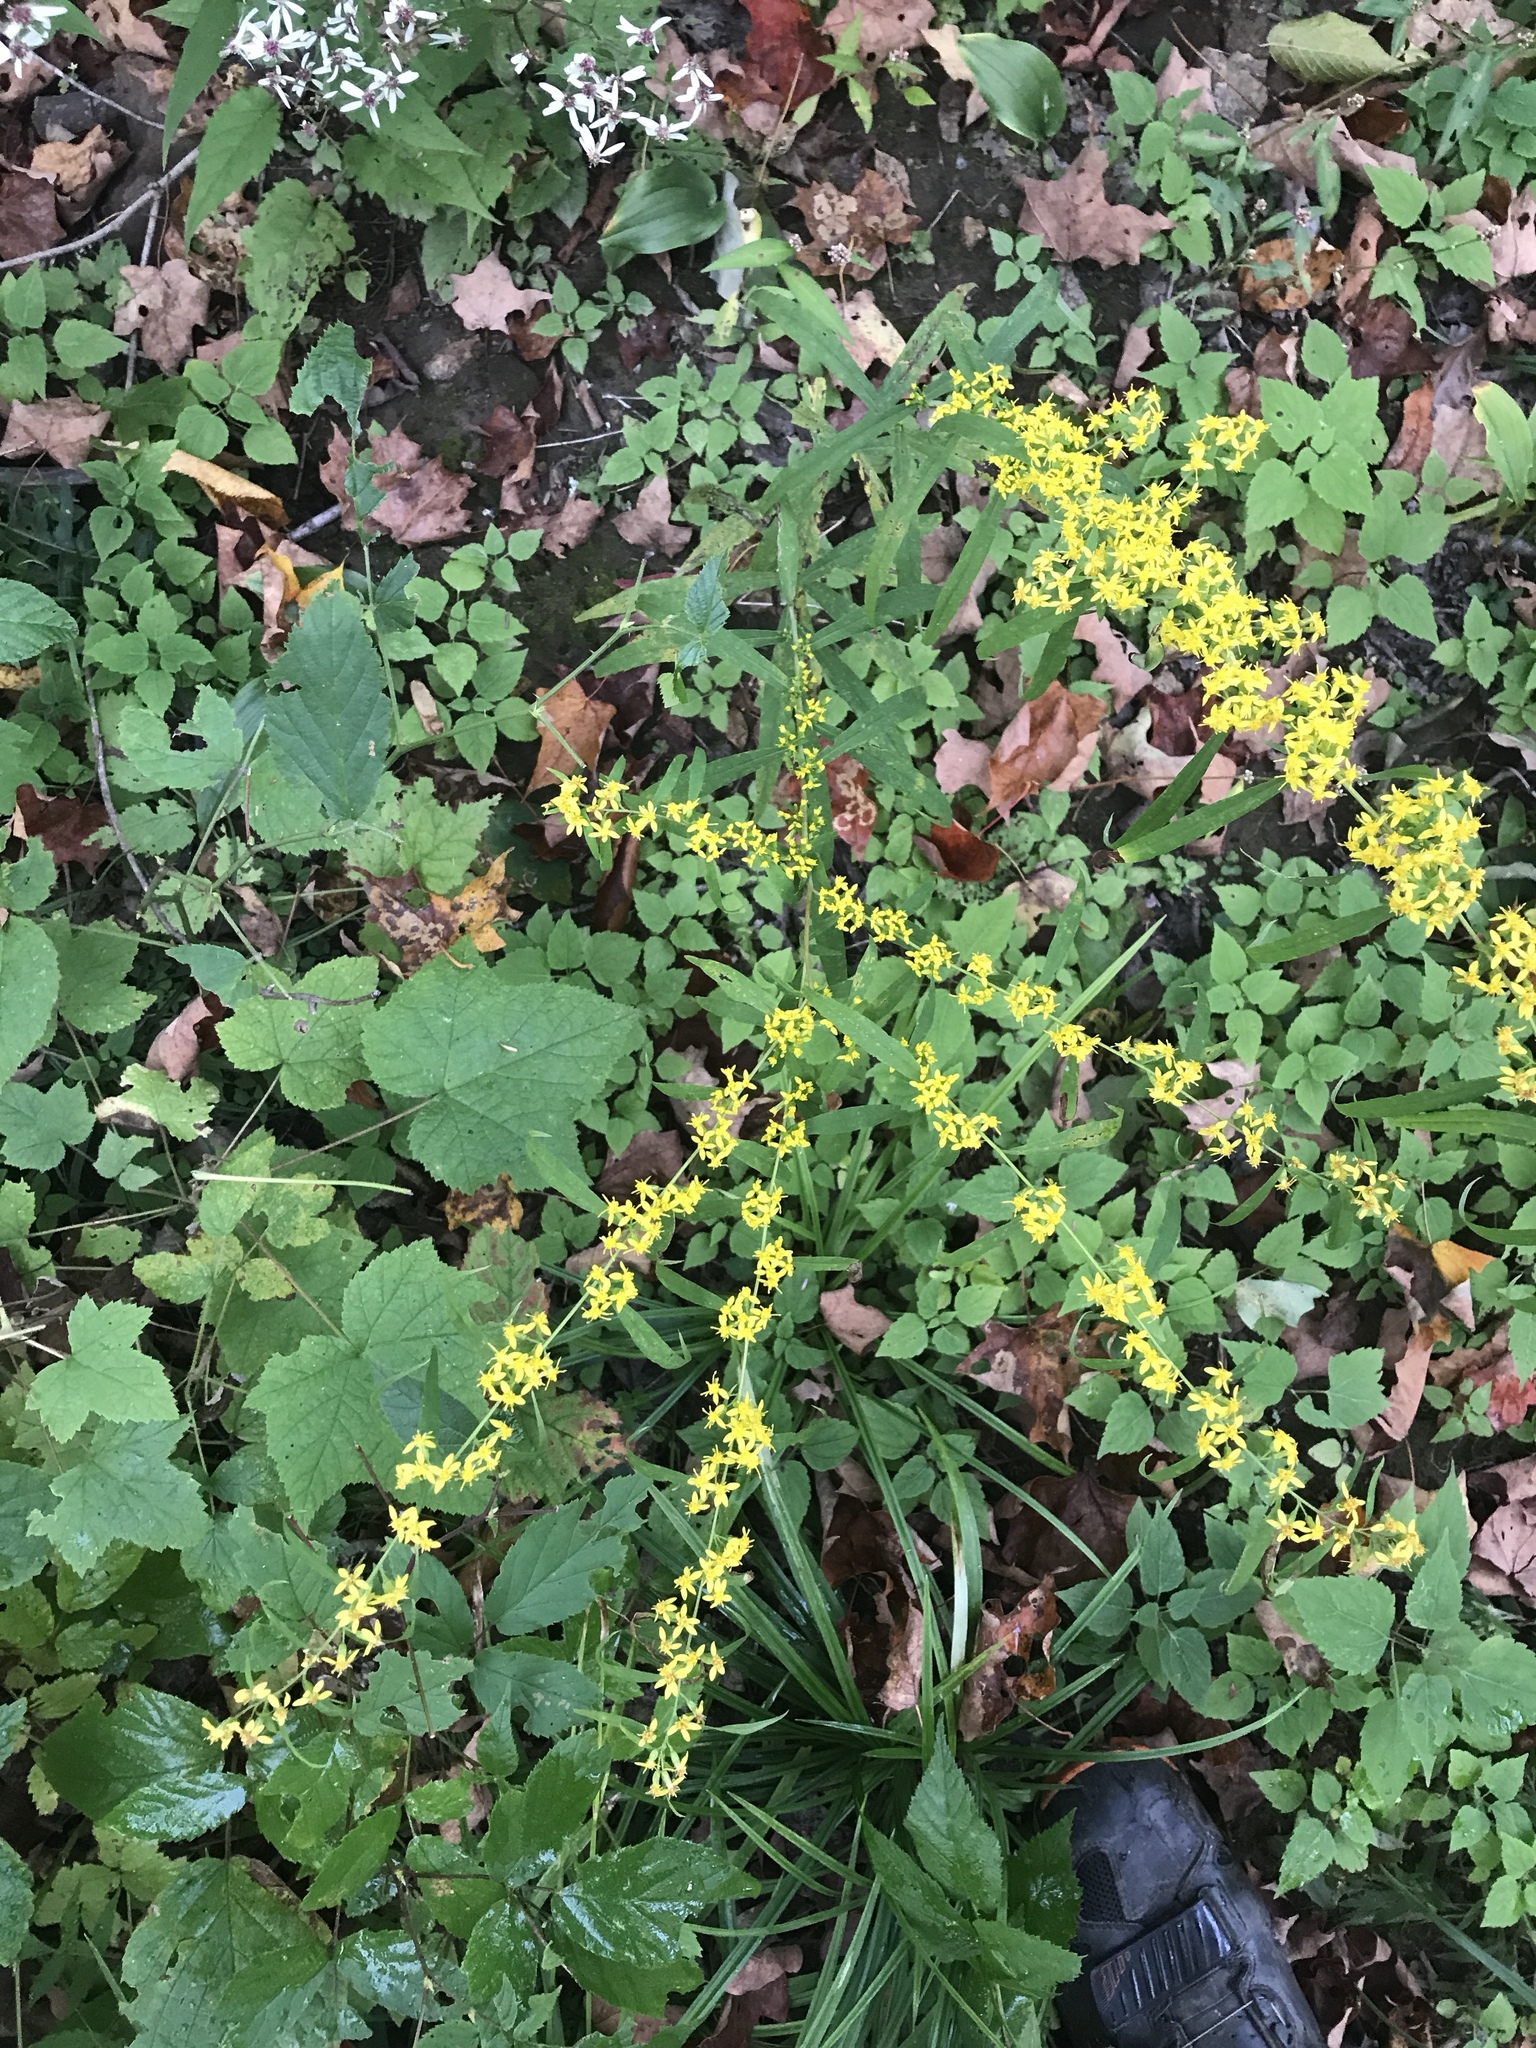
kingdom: Plantae
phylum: Tracheophyta
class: Magnoliopsida
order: Asterales
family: Asteraceae
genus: Solidago
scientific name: Solidago caesia
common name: Woodland goldenrod
